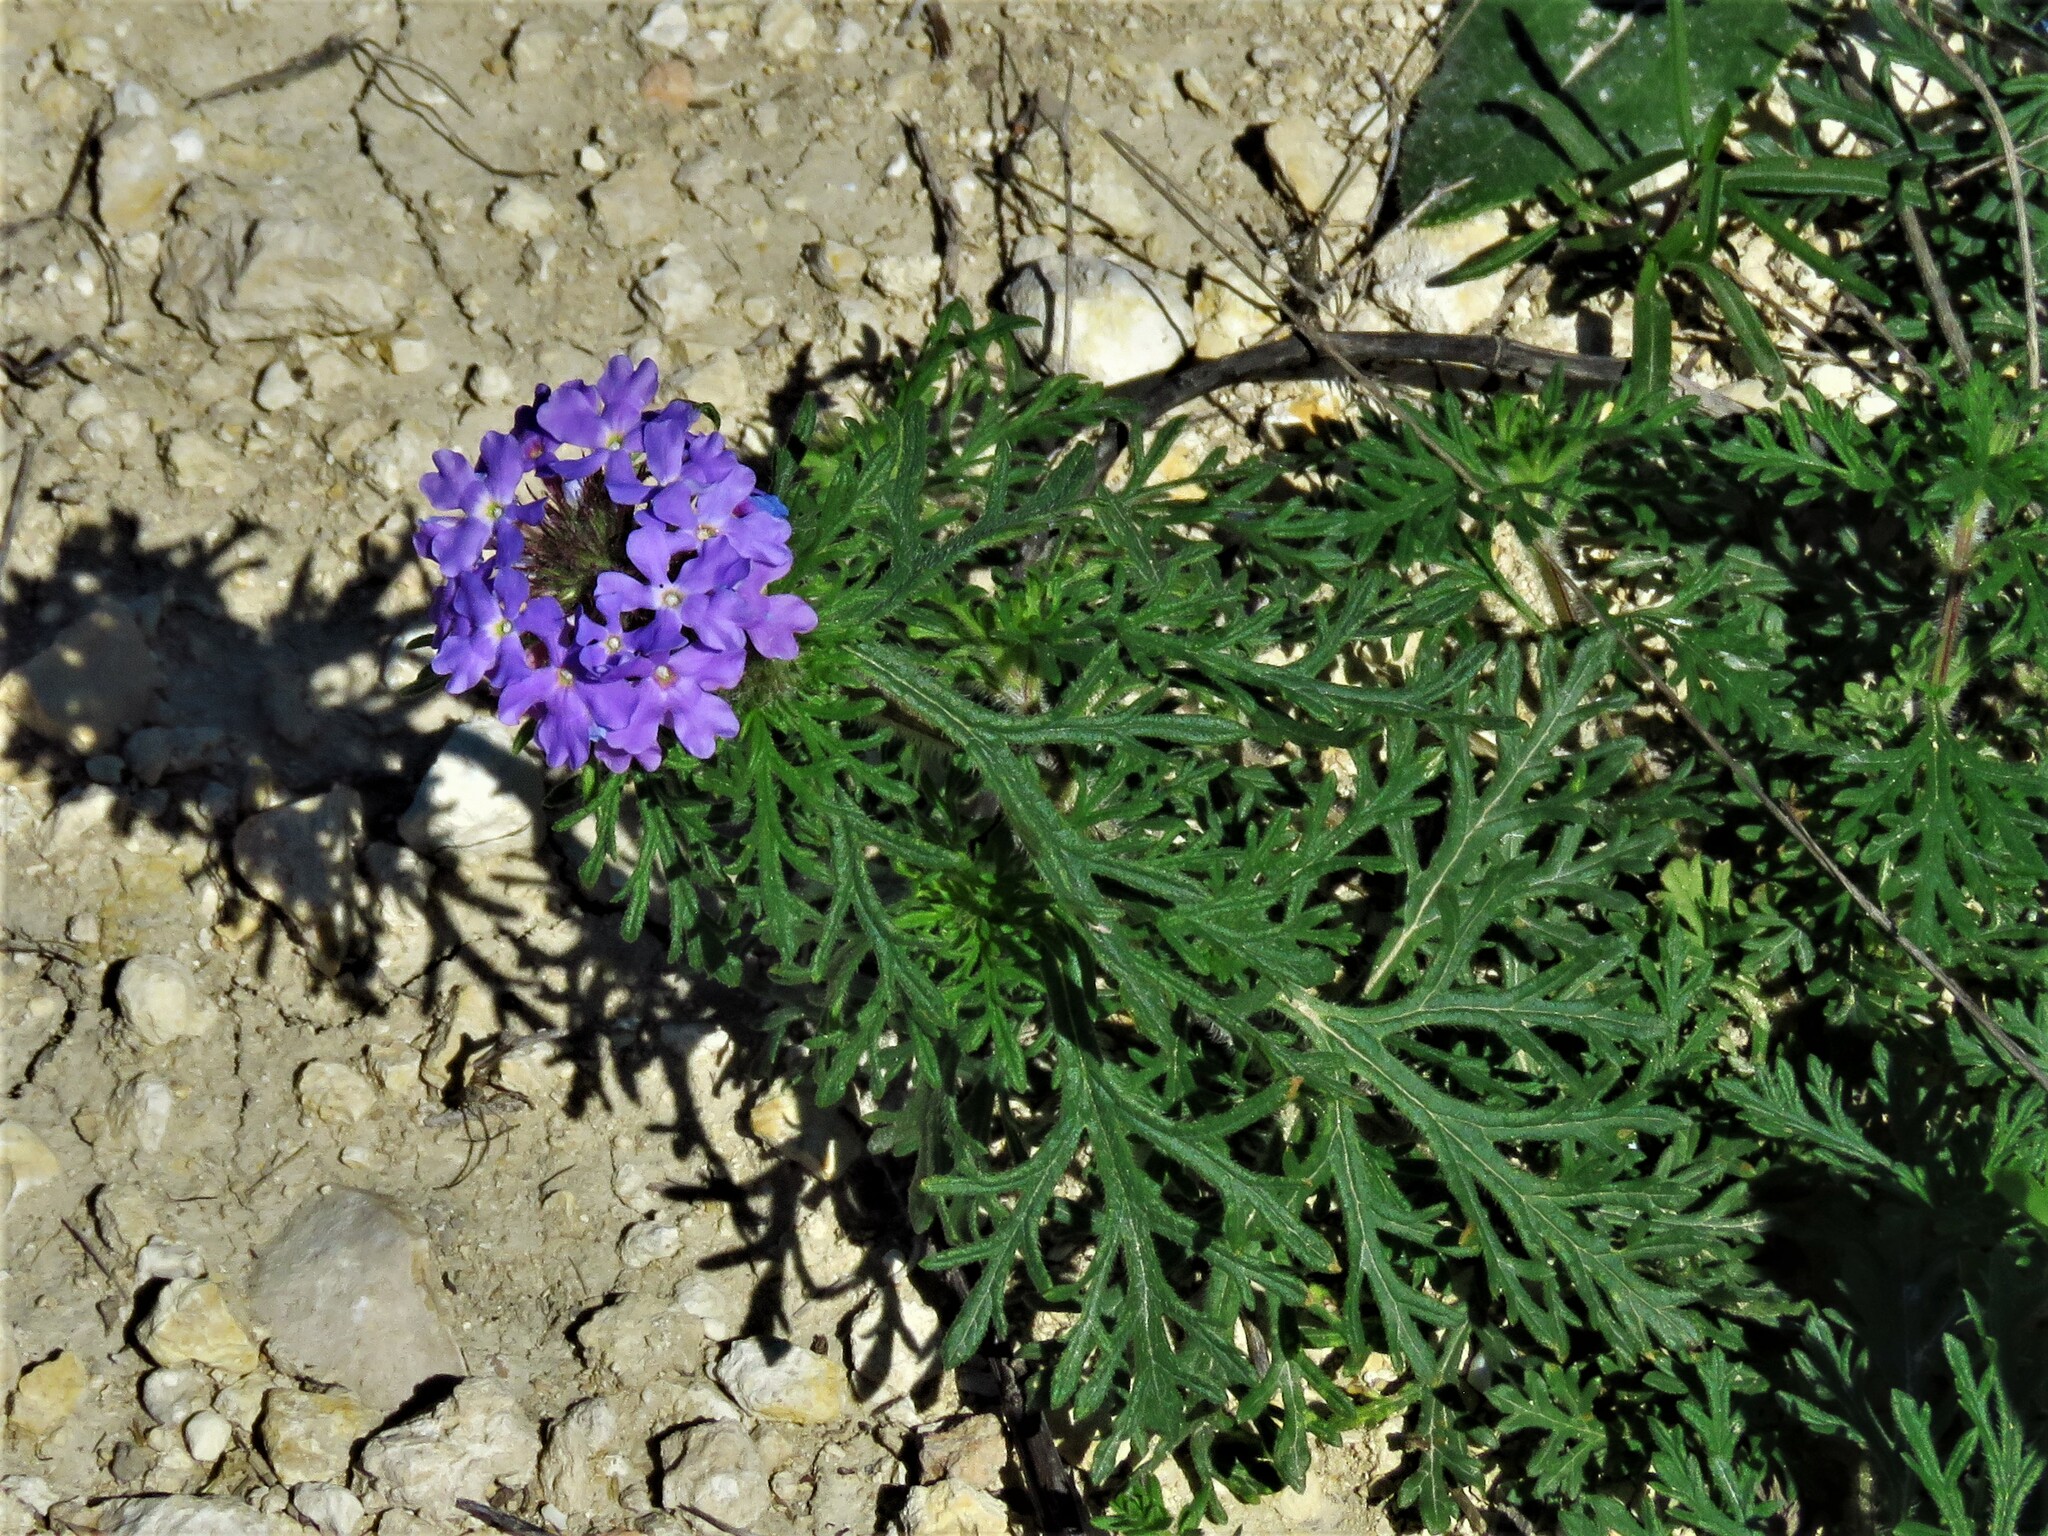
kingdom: Plantae
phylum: Tracheophyta
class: Magnoliopsida
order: Lamiales
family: Verbenaceae
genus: Verbena
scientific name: Verbena bipinnatifida
